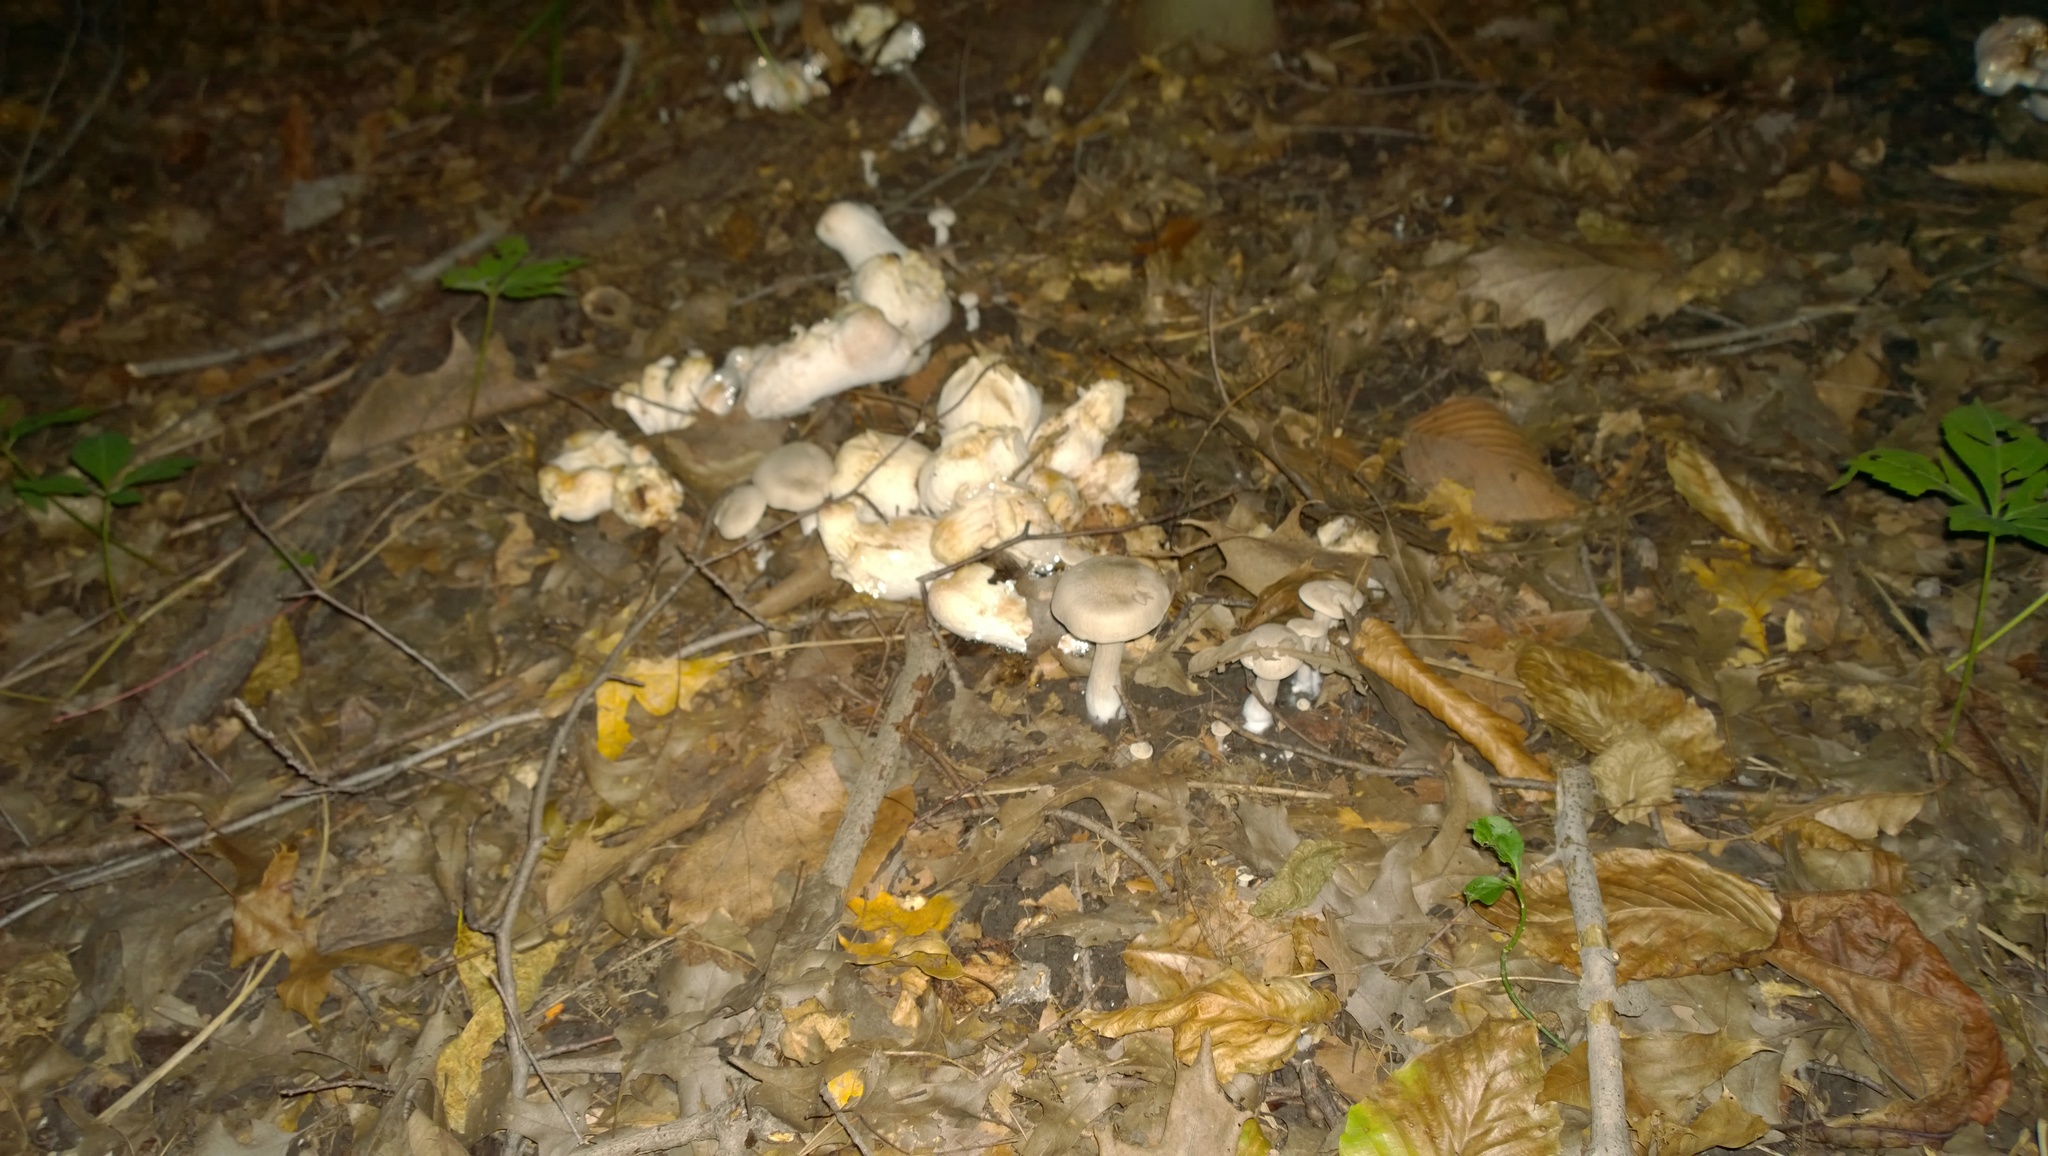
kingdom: Fungi
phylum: Basidiomycota
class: Agaricomycetes
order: Agaricales
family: Entolomataceae
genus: Entoloma
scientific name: Entoloma abortivum
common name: Aborted entoloma
